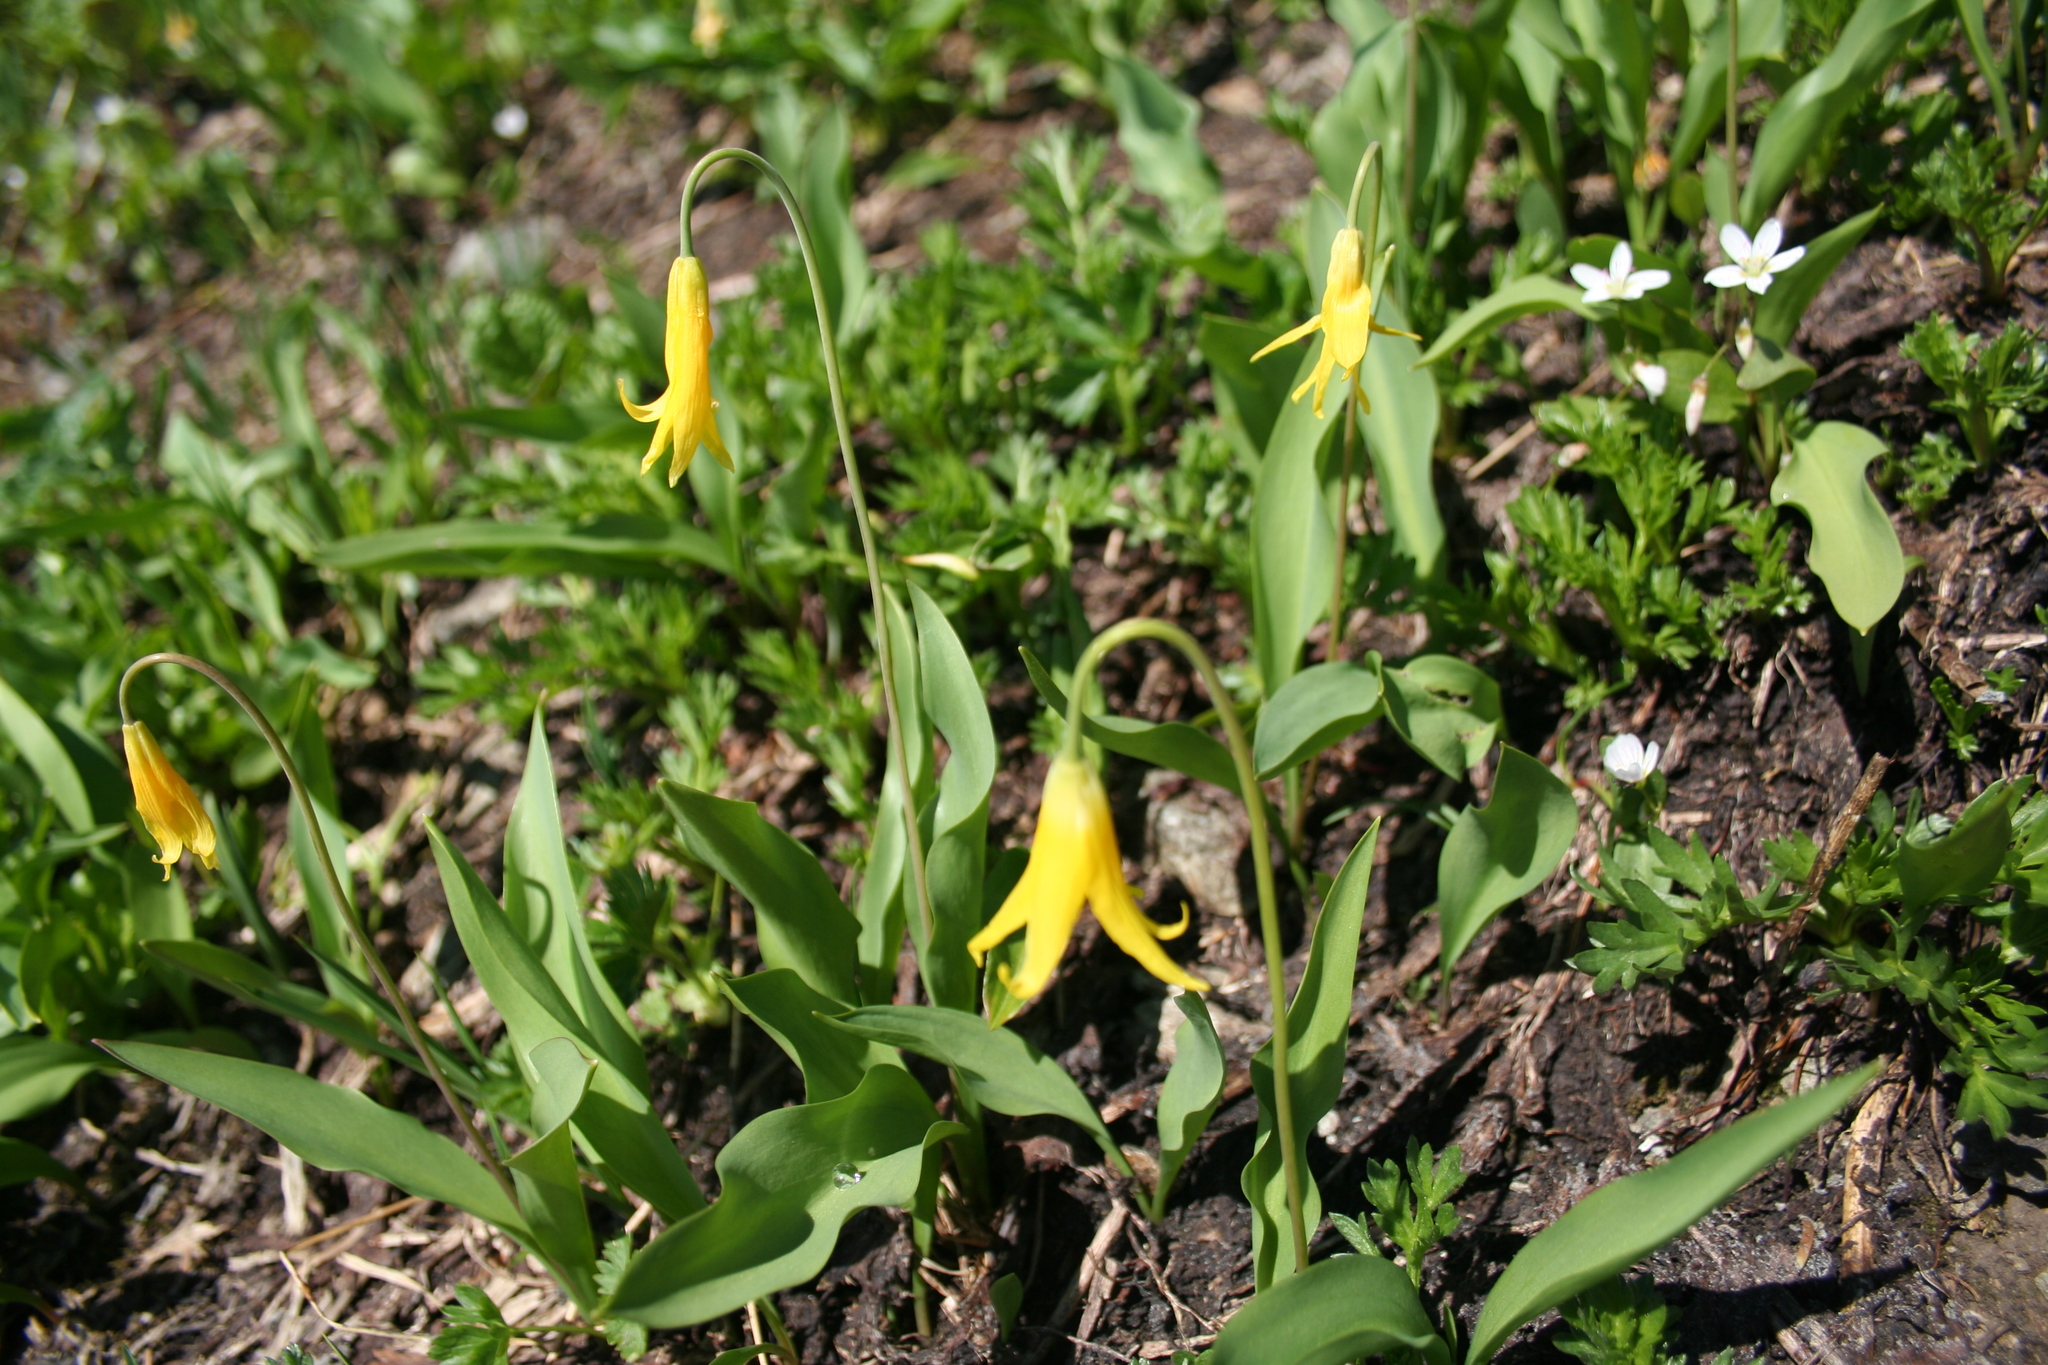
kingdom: Plantae
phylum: Tracheophyta
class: Liliopsida
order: Liliales
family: Liliaceae
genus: Erythronium
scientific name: Erythronium grandiflorum
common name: Avalanche-lily
